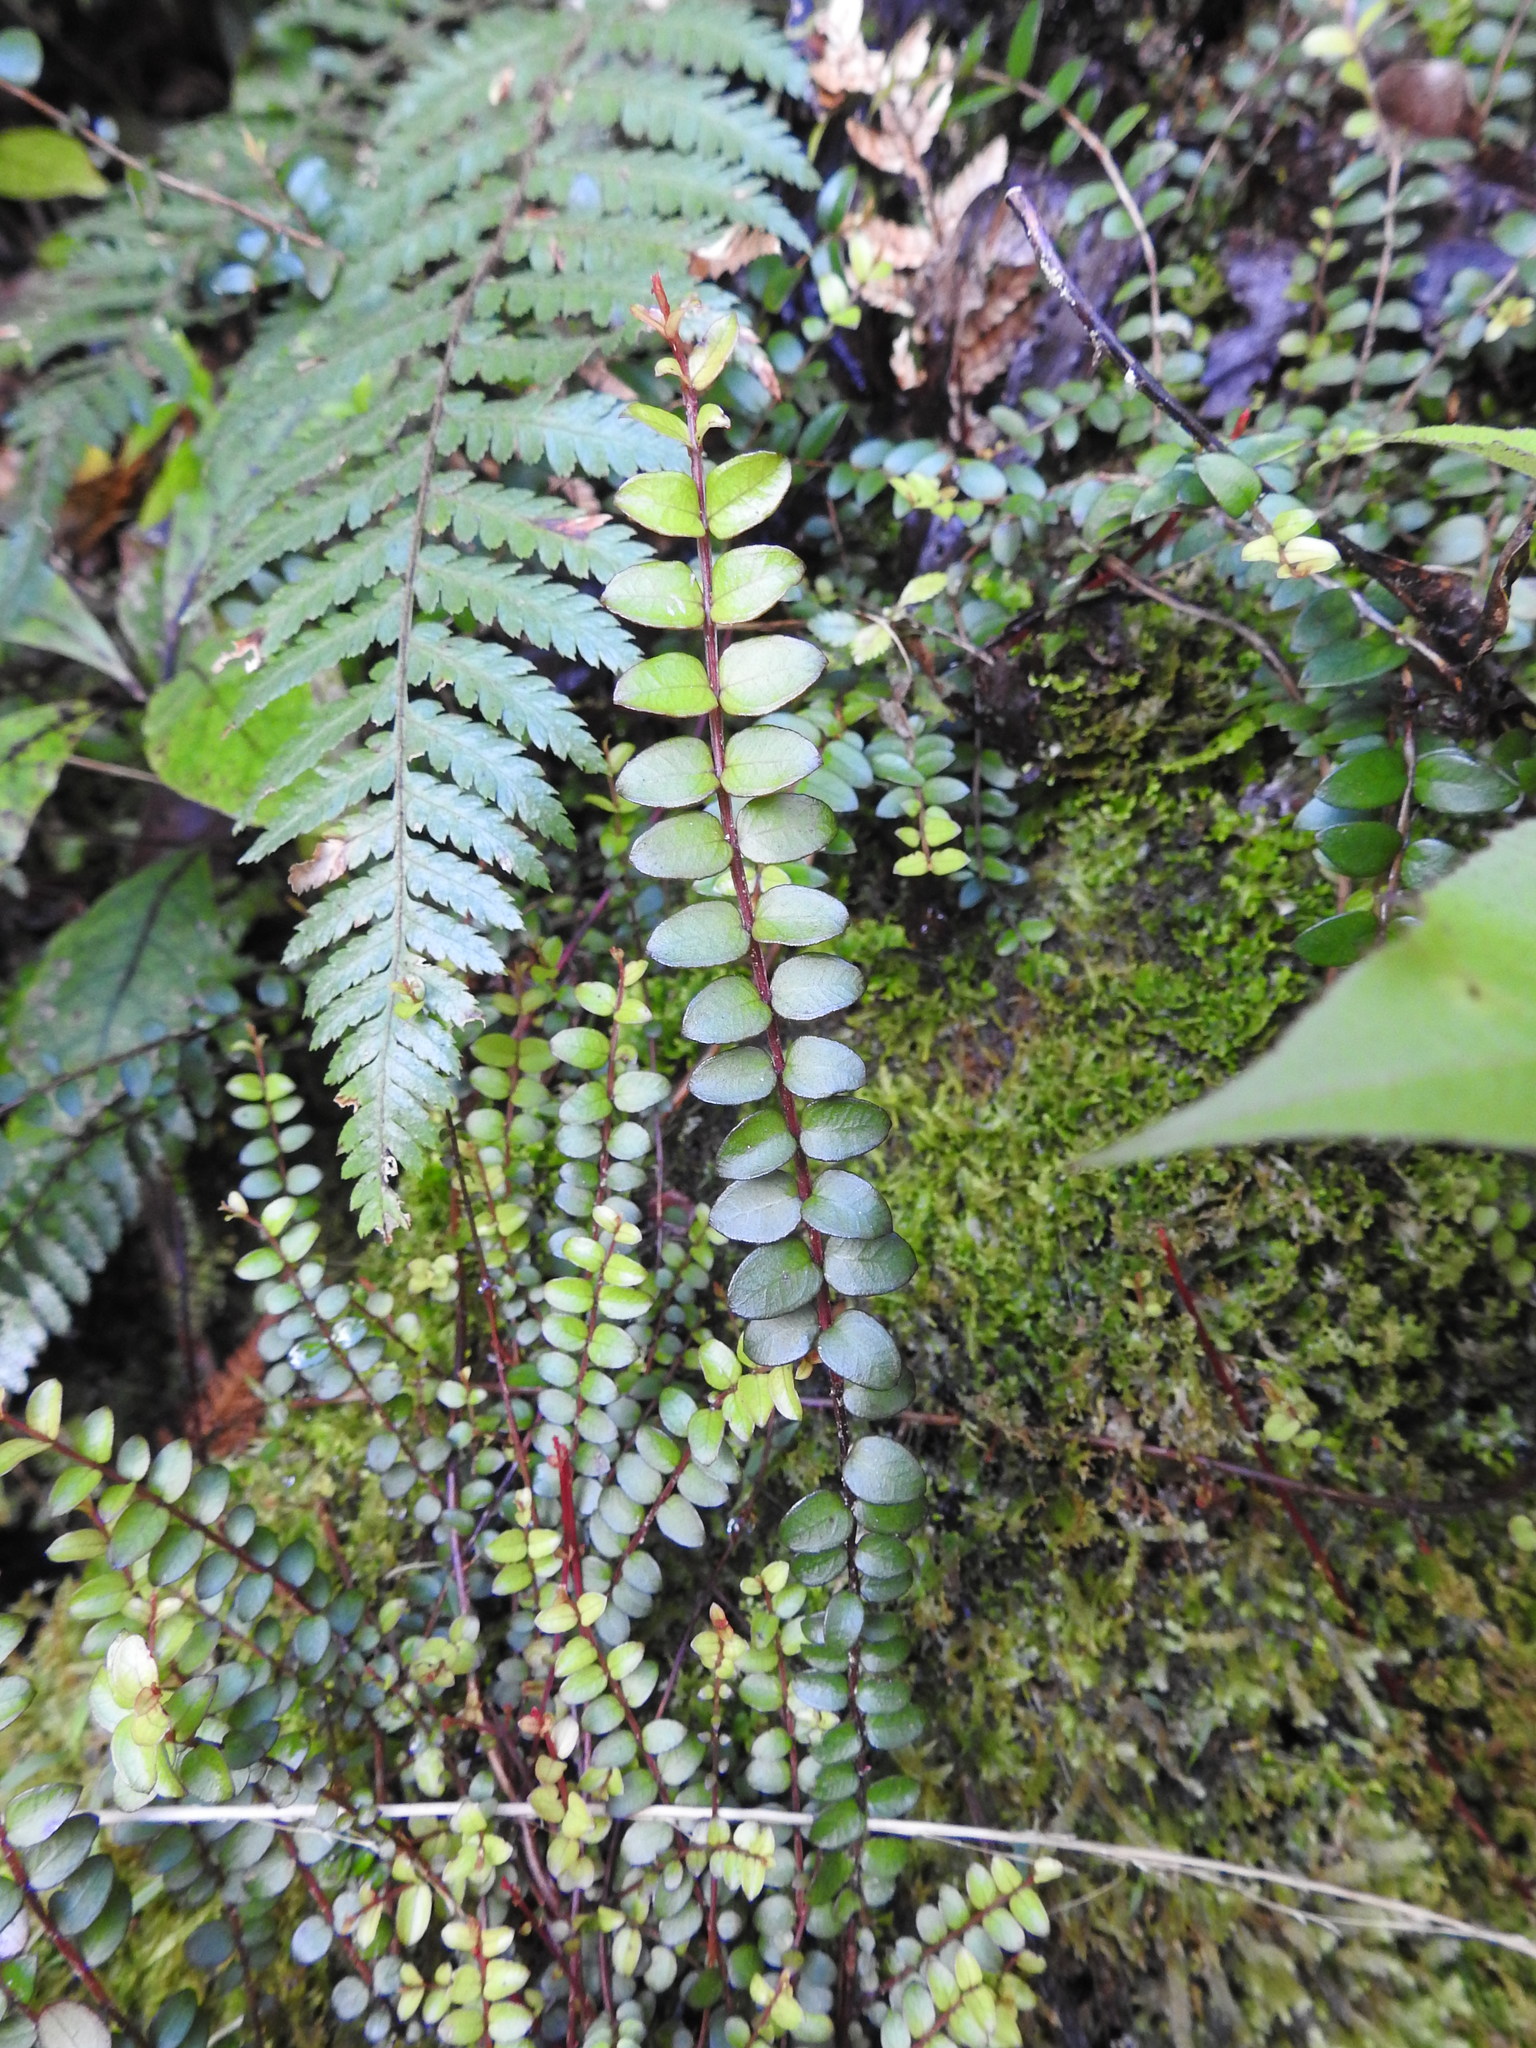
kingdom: Plantae
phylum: Tracheophyta
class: Magnoliopsida
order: Myrtales
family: Myrtaceae
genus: Metrosideros
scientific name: Metrosideros diffusa
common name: Small ratavine
